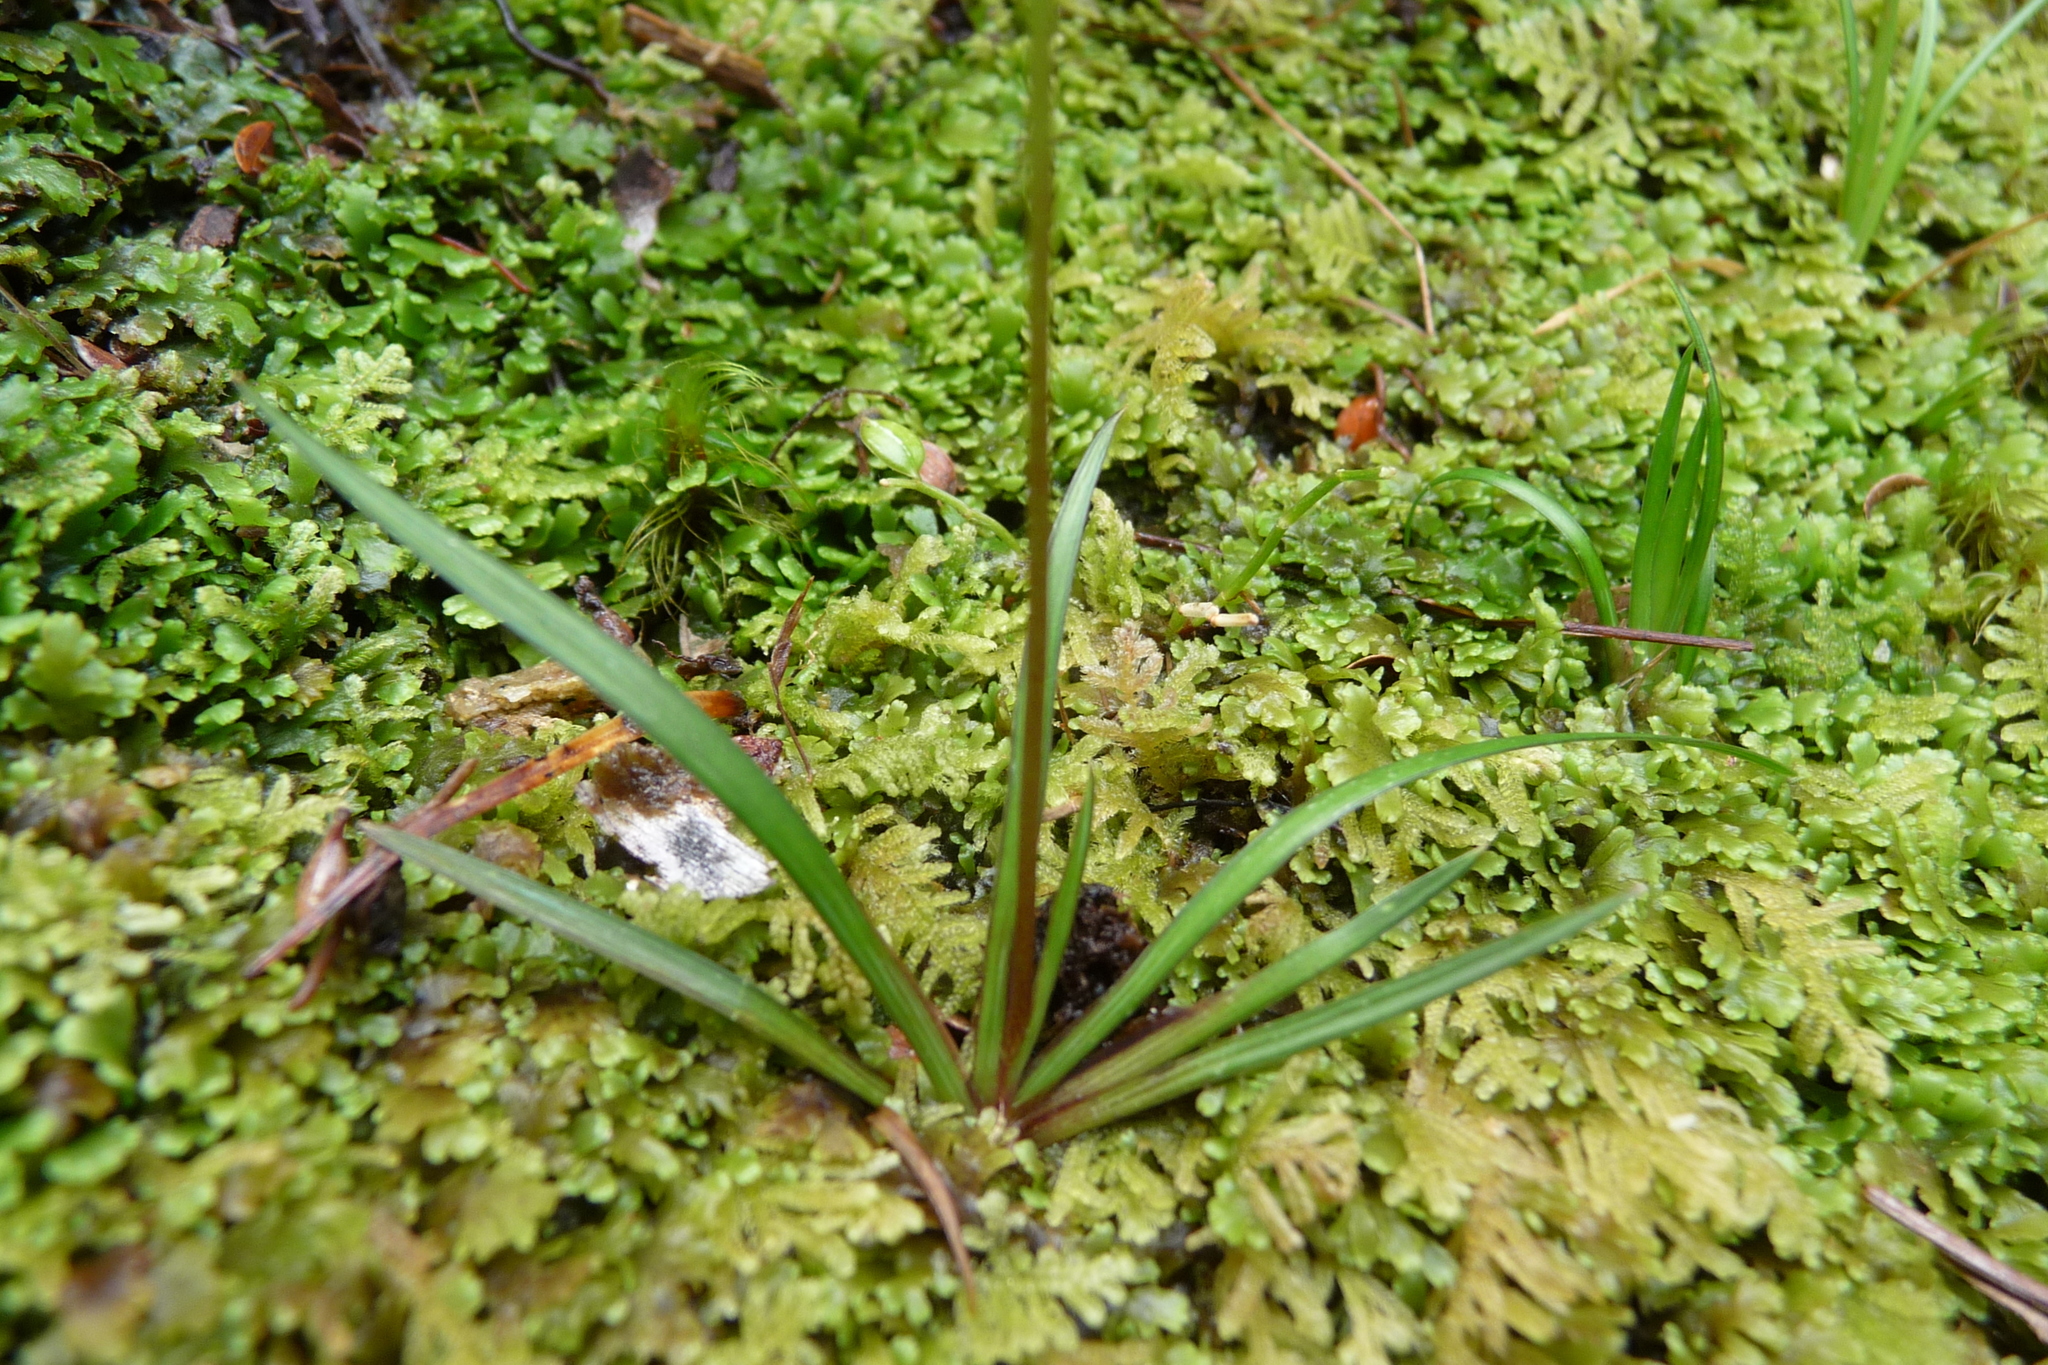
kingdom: Plantae
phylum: Tracheophyta
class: Liliopsida
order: Asparagales
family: Iridaceae
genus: Libertia
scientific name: Libertia micrantha
